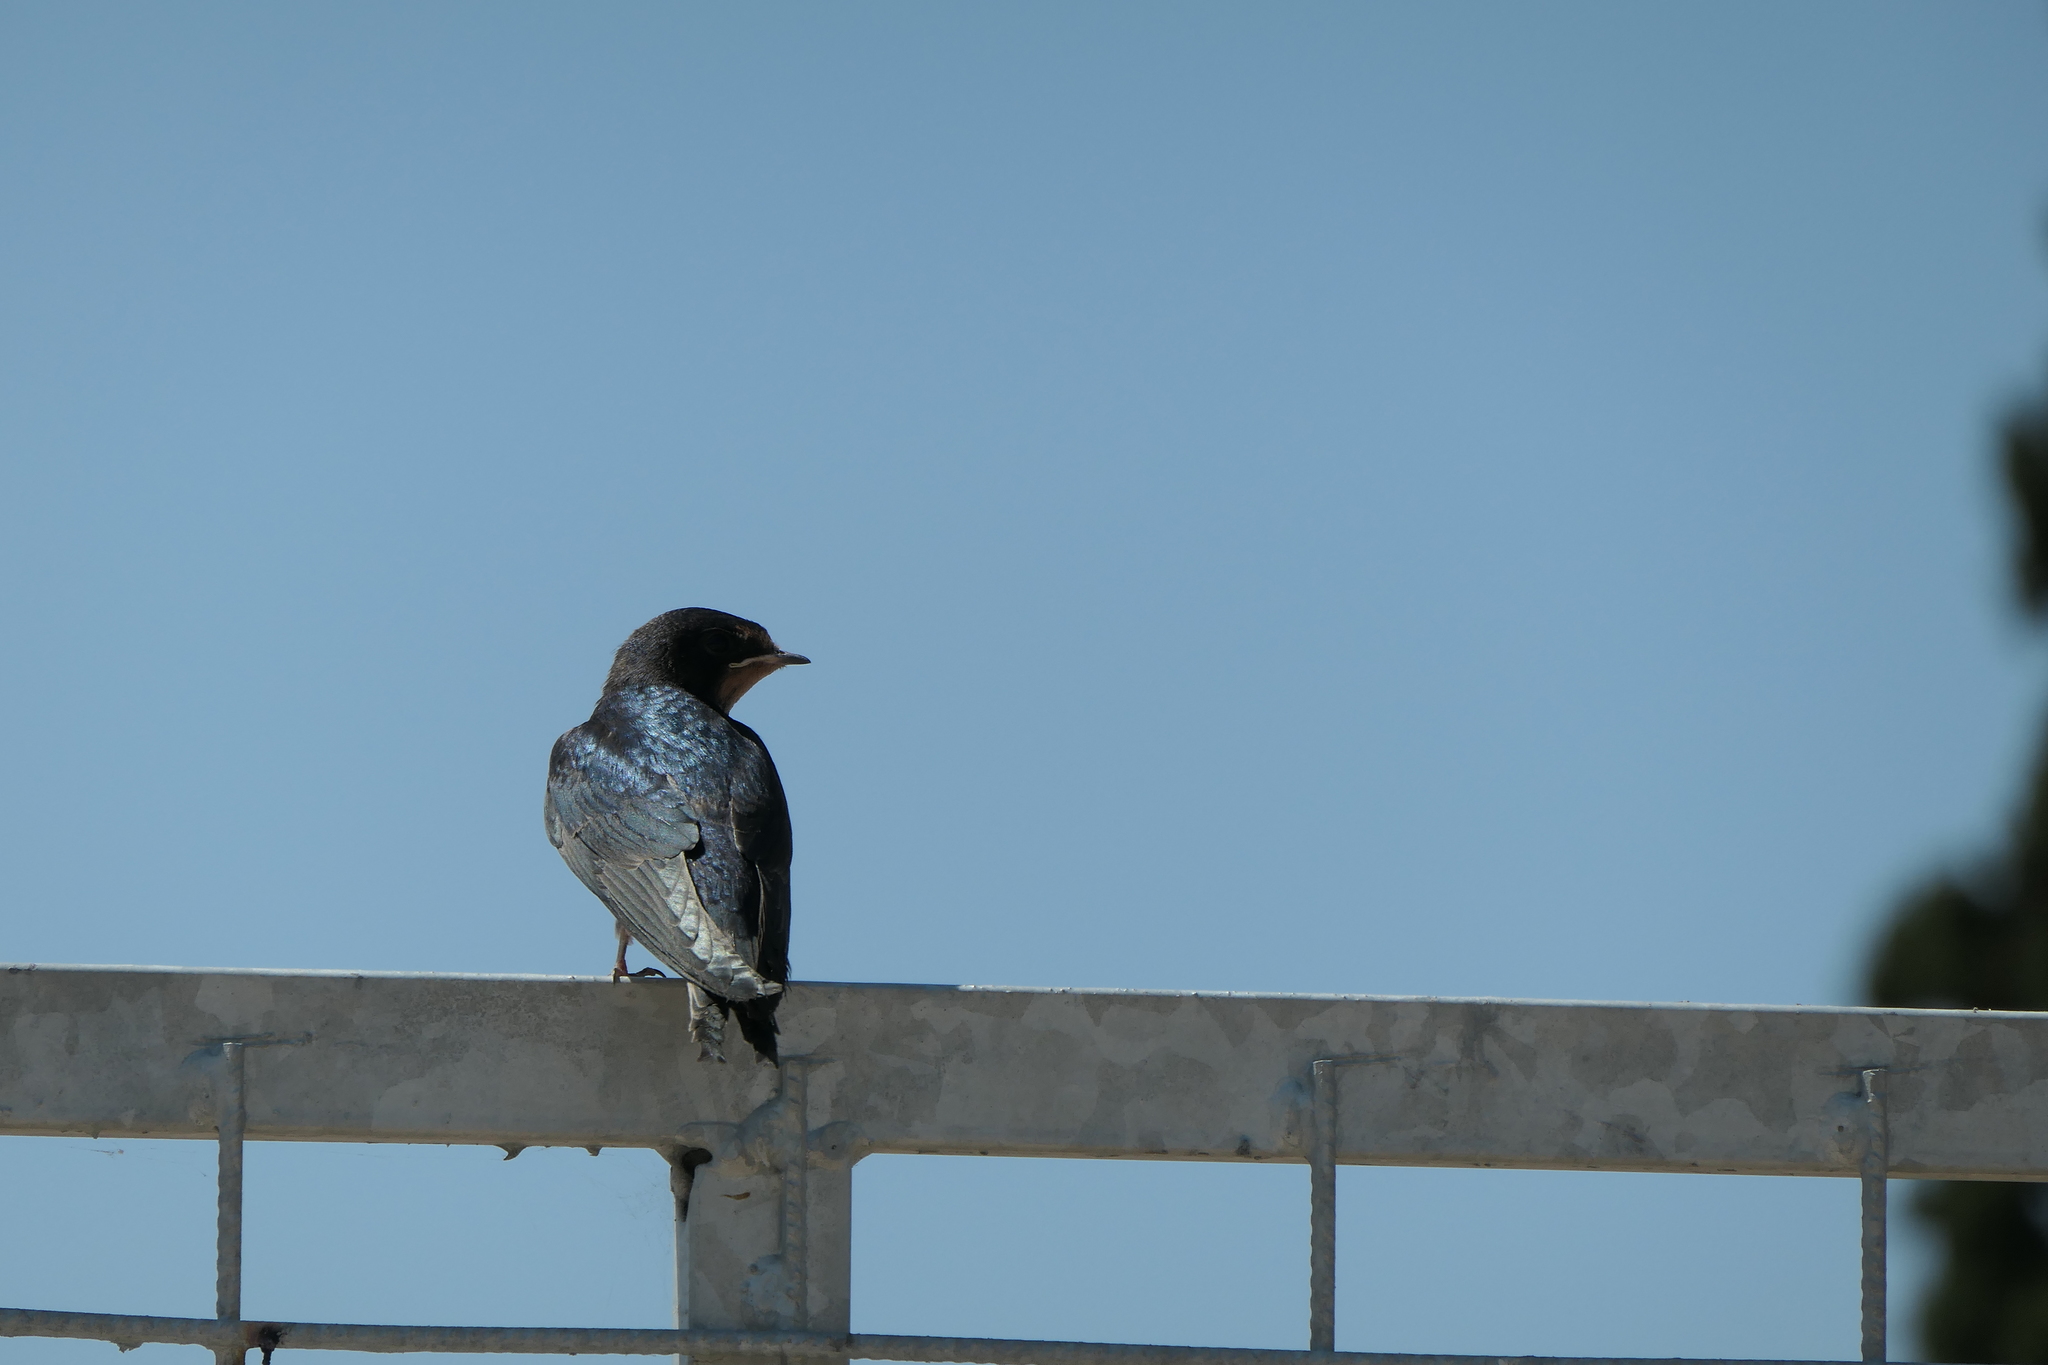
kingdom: Animalia
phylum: Chordata
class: Aves
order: Passeriformes
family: Hirundinidae
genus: Hirundo
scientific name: Hirundo rustica
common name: Barn swallow
